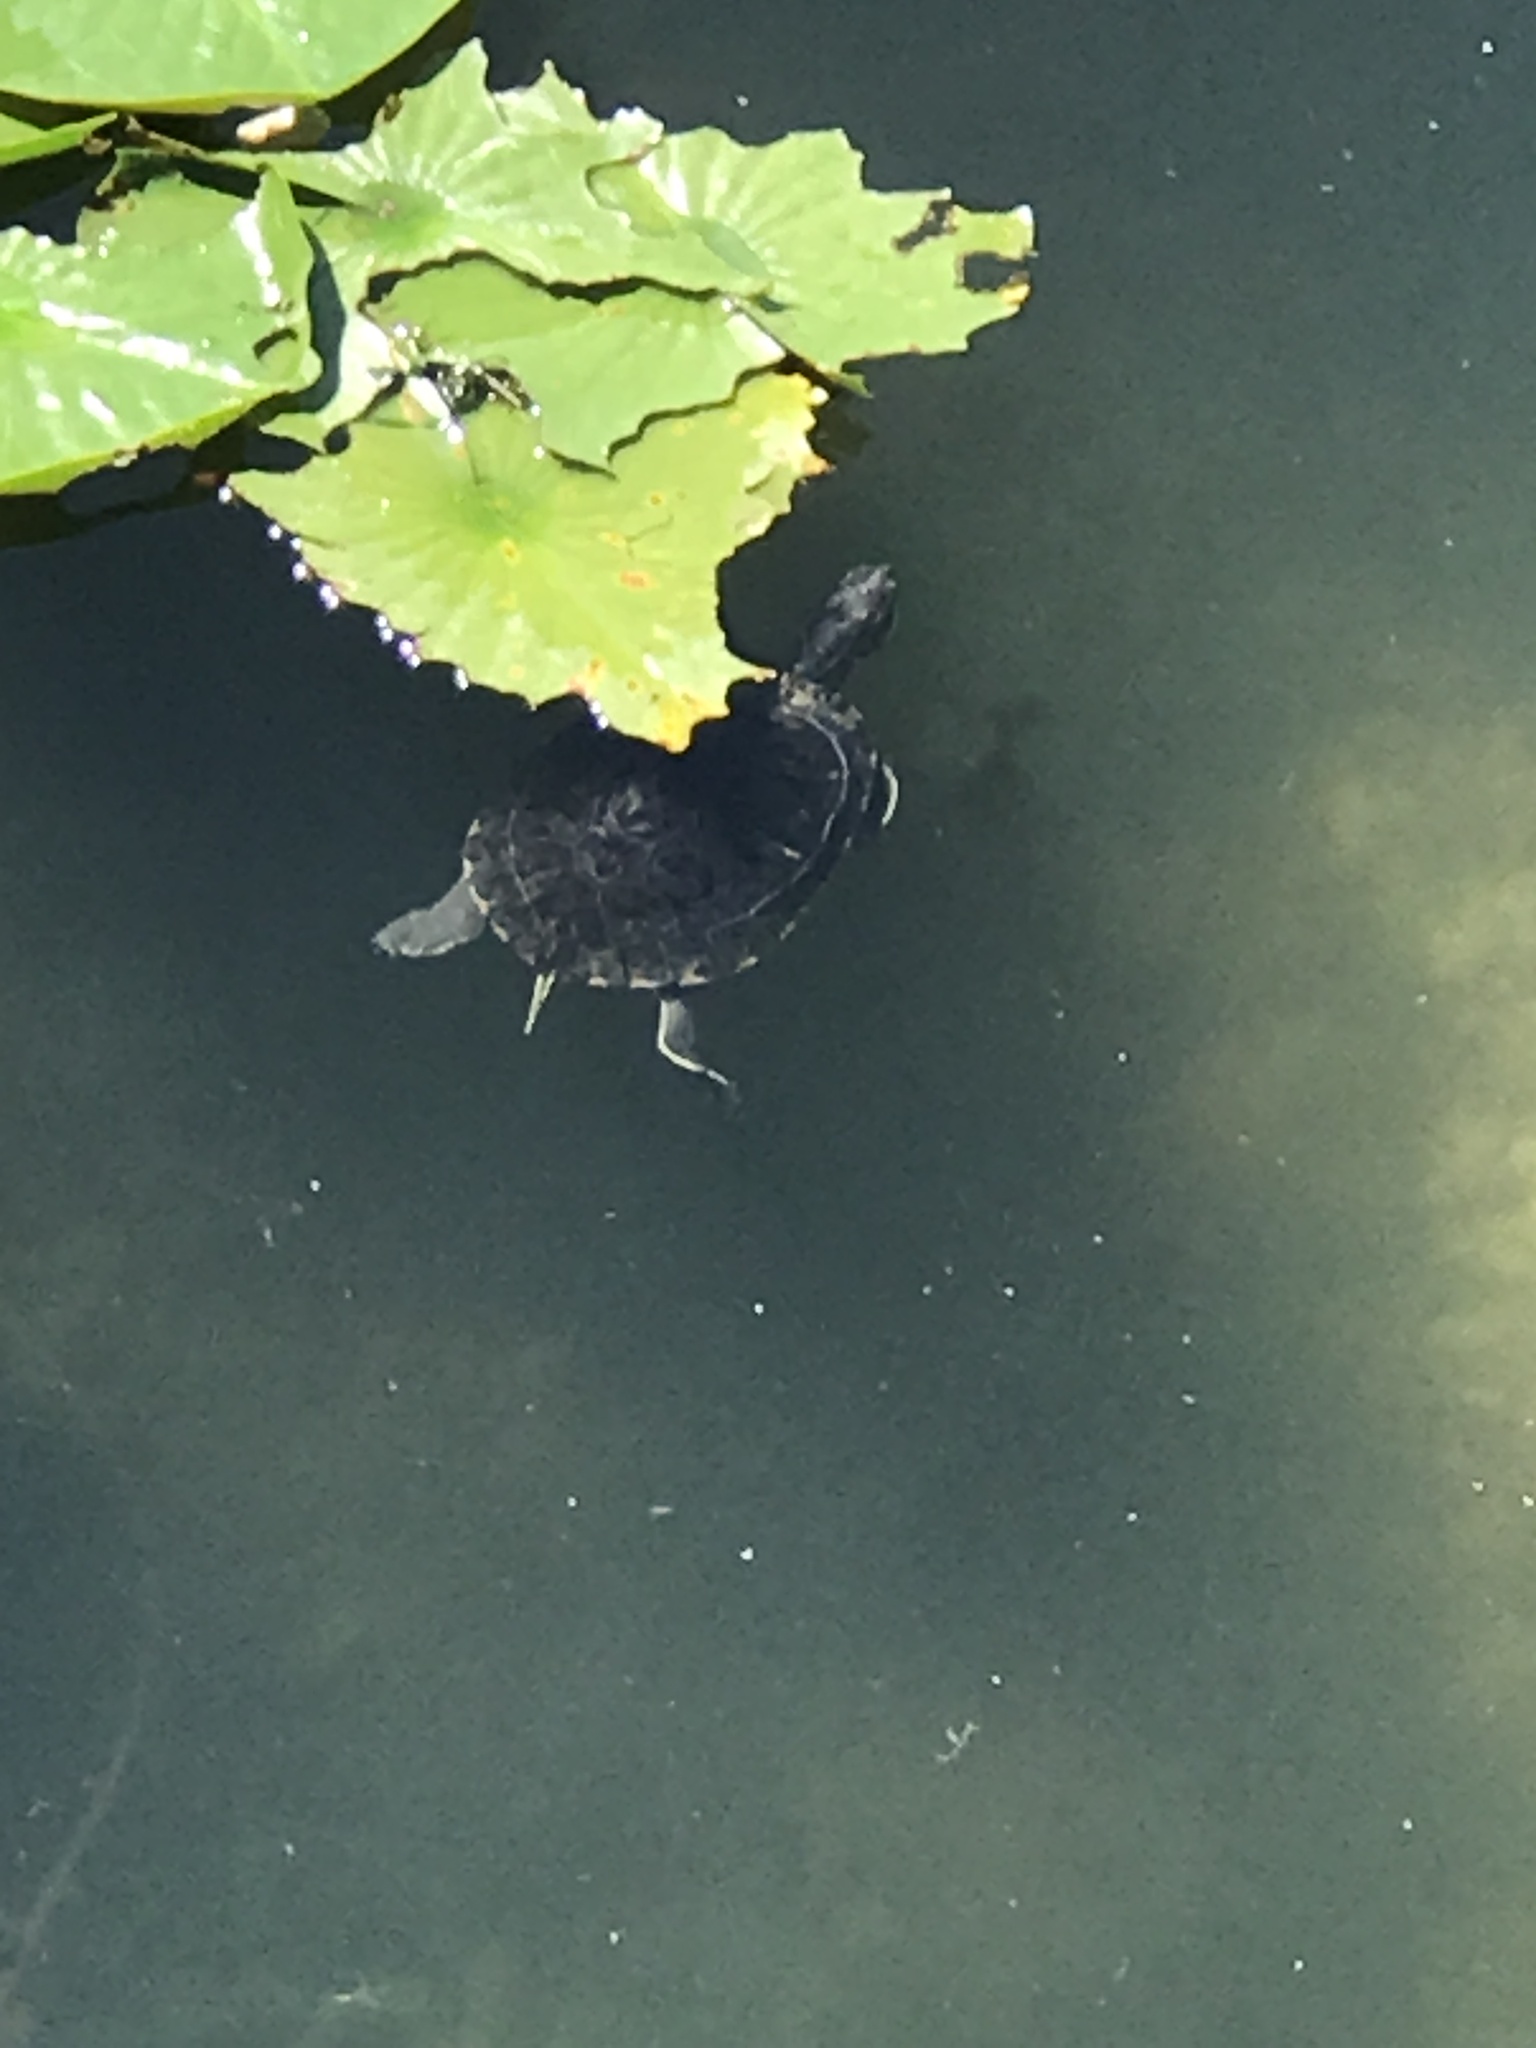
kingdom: Animalia
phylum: Chordata
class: Testudines
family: Emydidae
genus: Trachemys
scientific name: Trachemys scripta
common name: Slider
